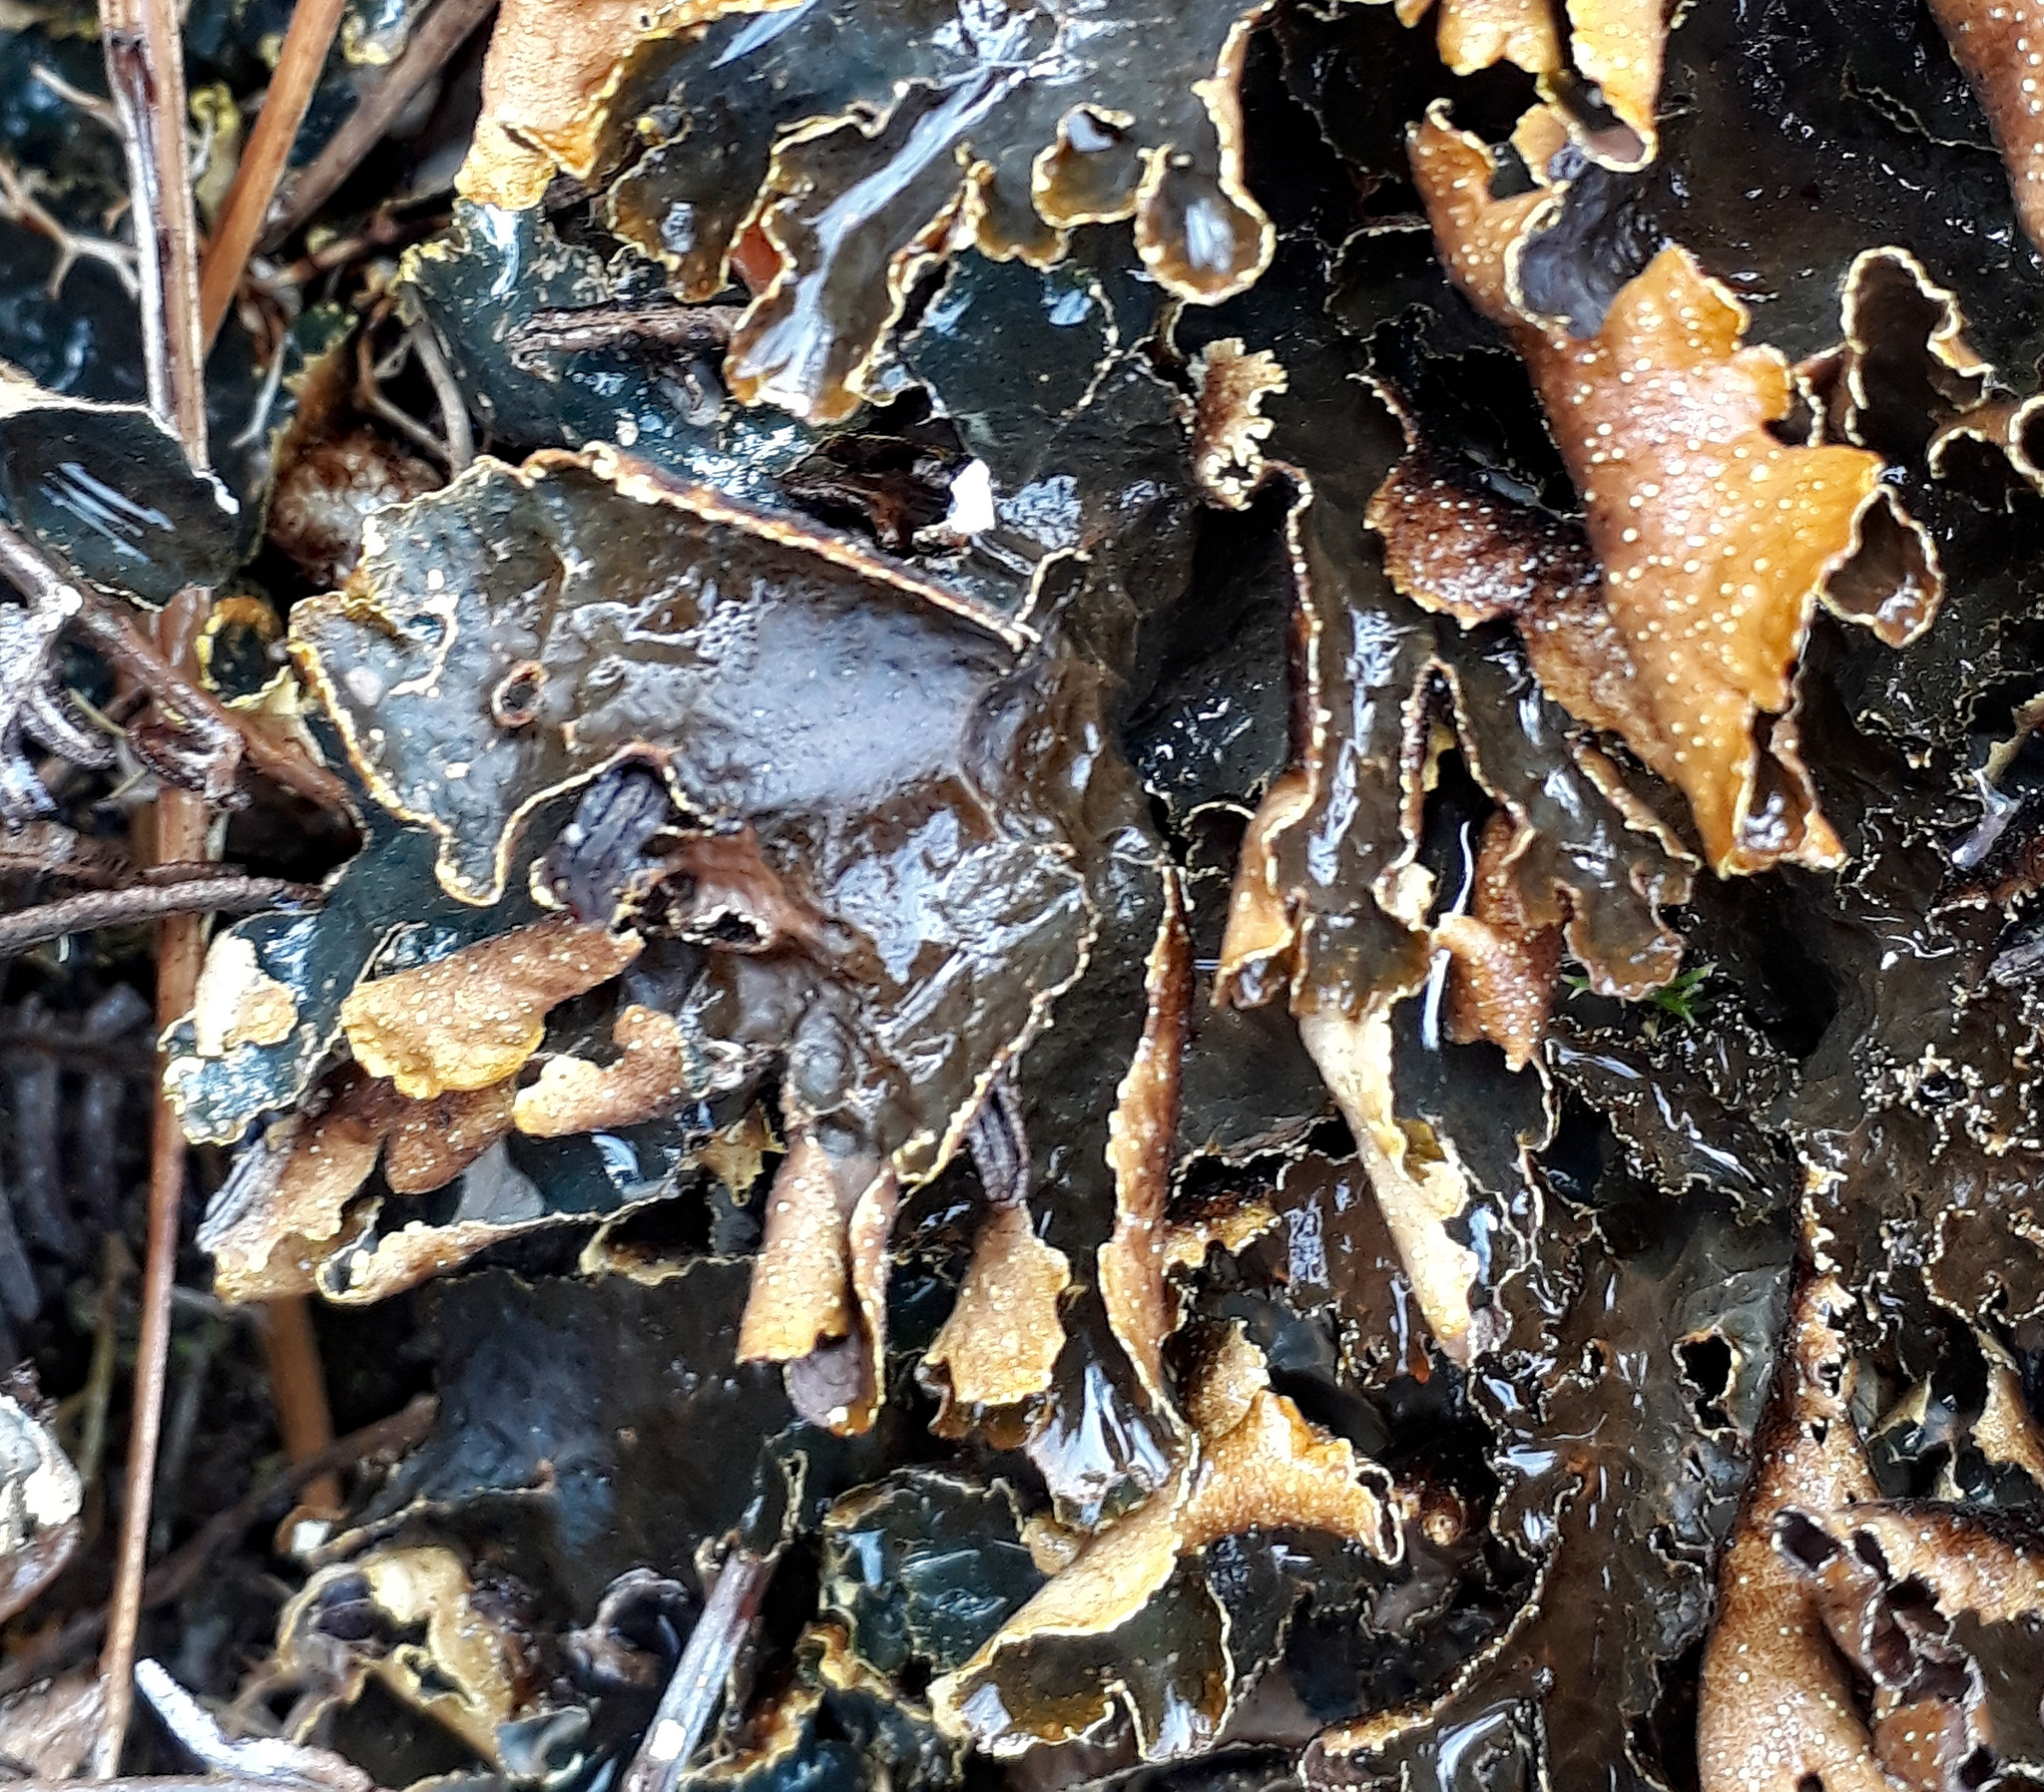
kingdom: Fungi
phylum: Ascomycota
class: Lecanoromycetes
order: Peltigerales
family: Lobariaceae
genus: Pseudocyphellaria
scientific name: Pseudocyphellaria neglecta
